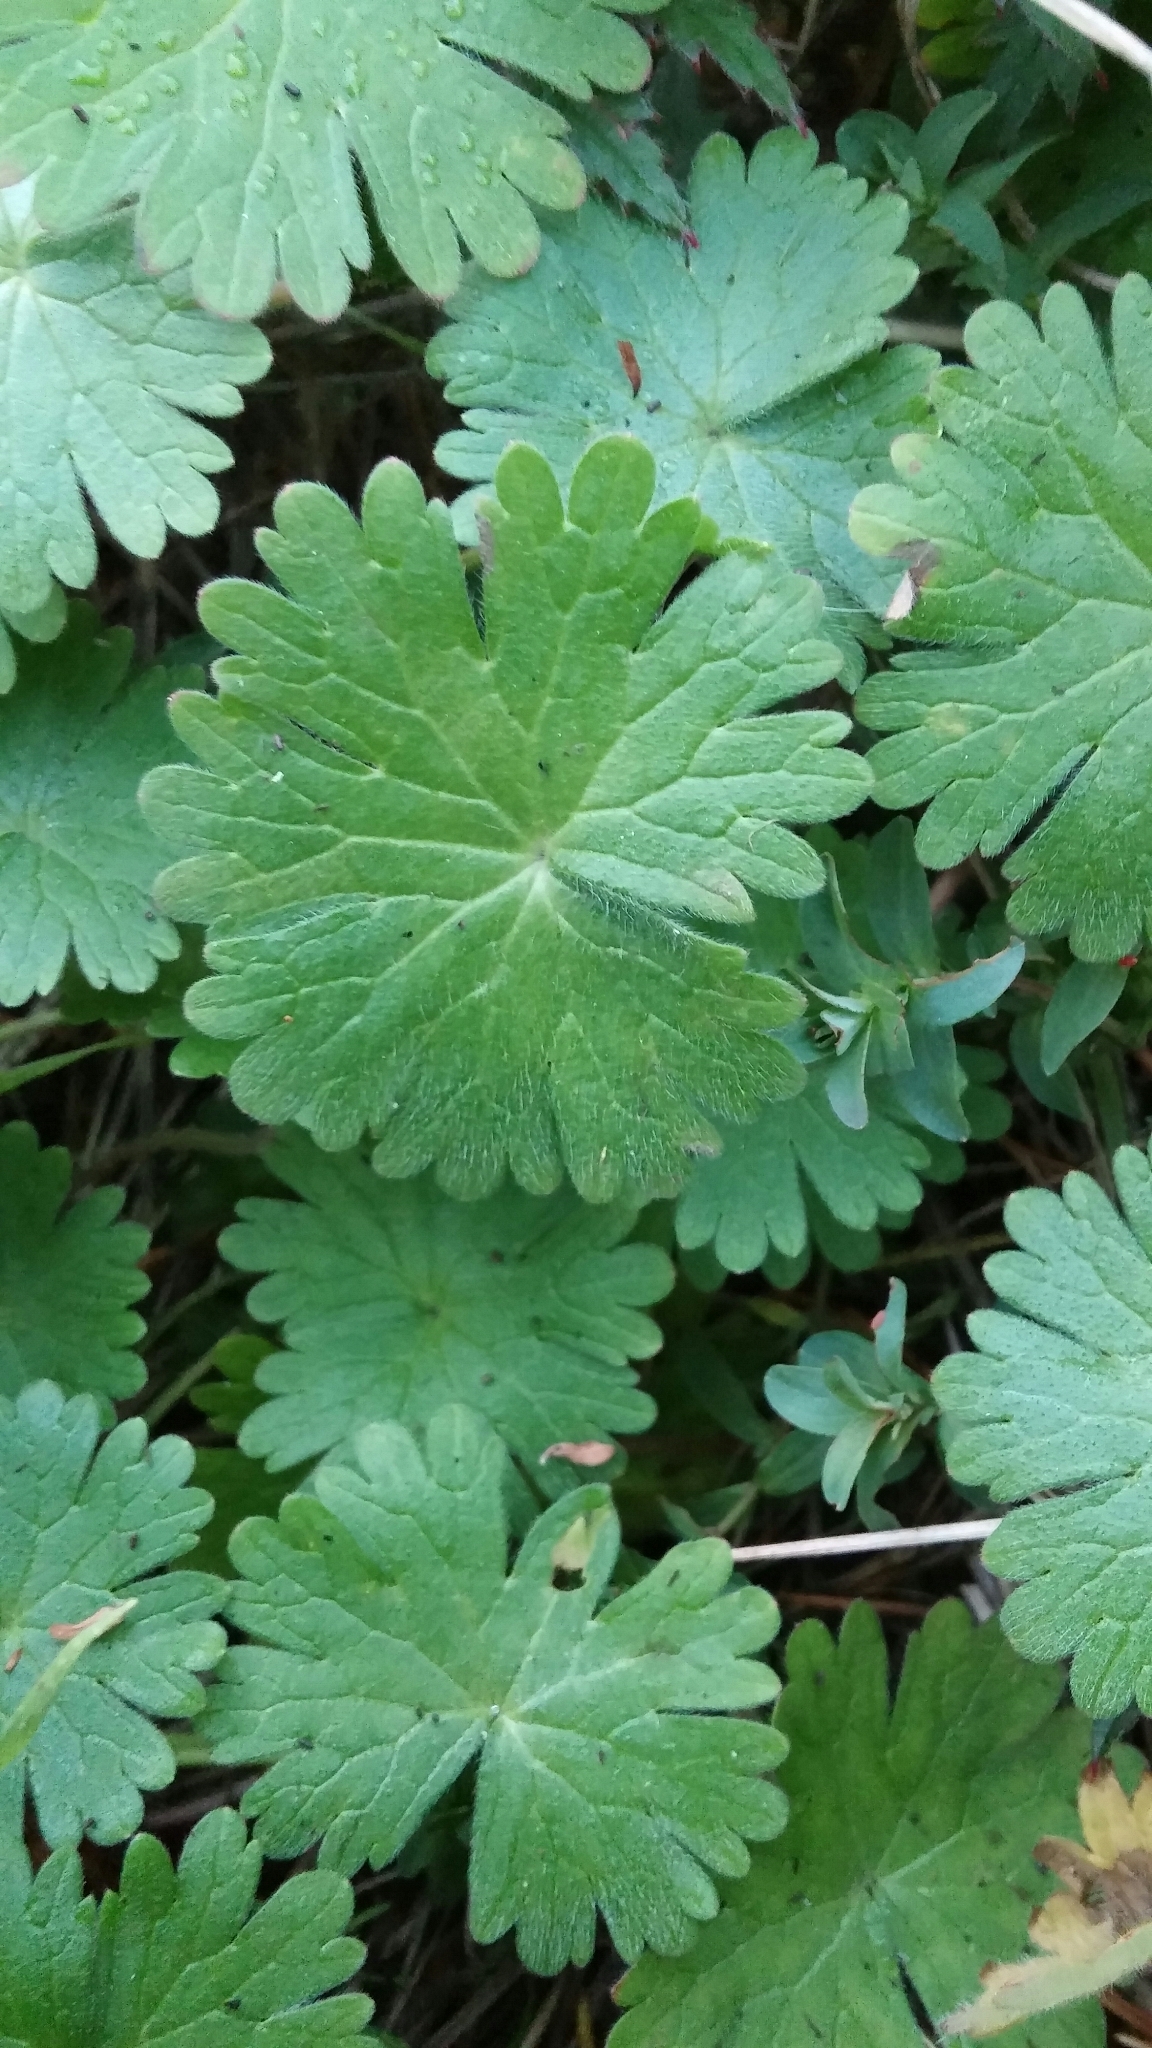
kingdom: Plantae
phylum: Tracheophyta
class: Magnoliopsida
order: Geraniales
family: Geraniaceae
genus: Geranium
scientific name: Geranium molle
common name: Dove's-foot crane's-bill
